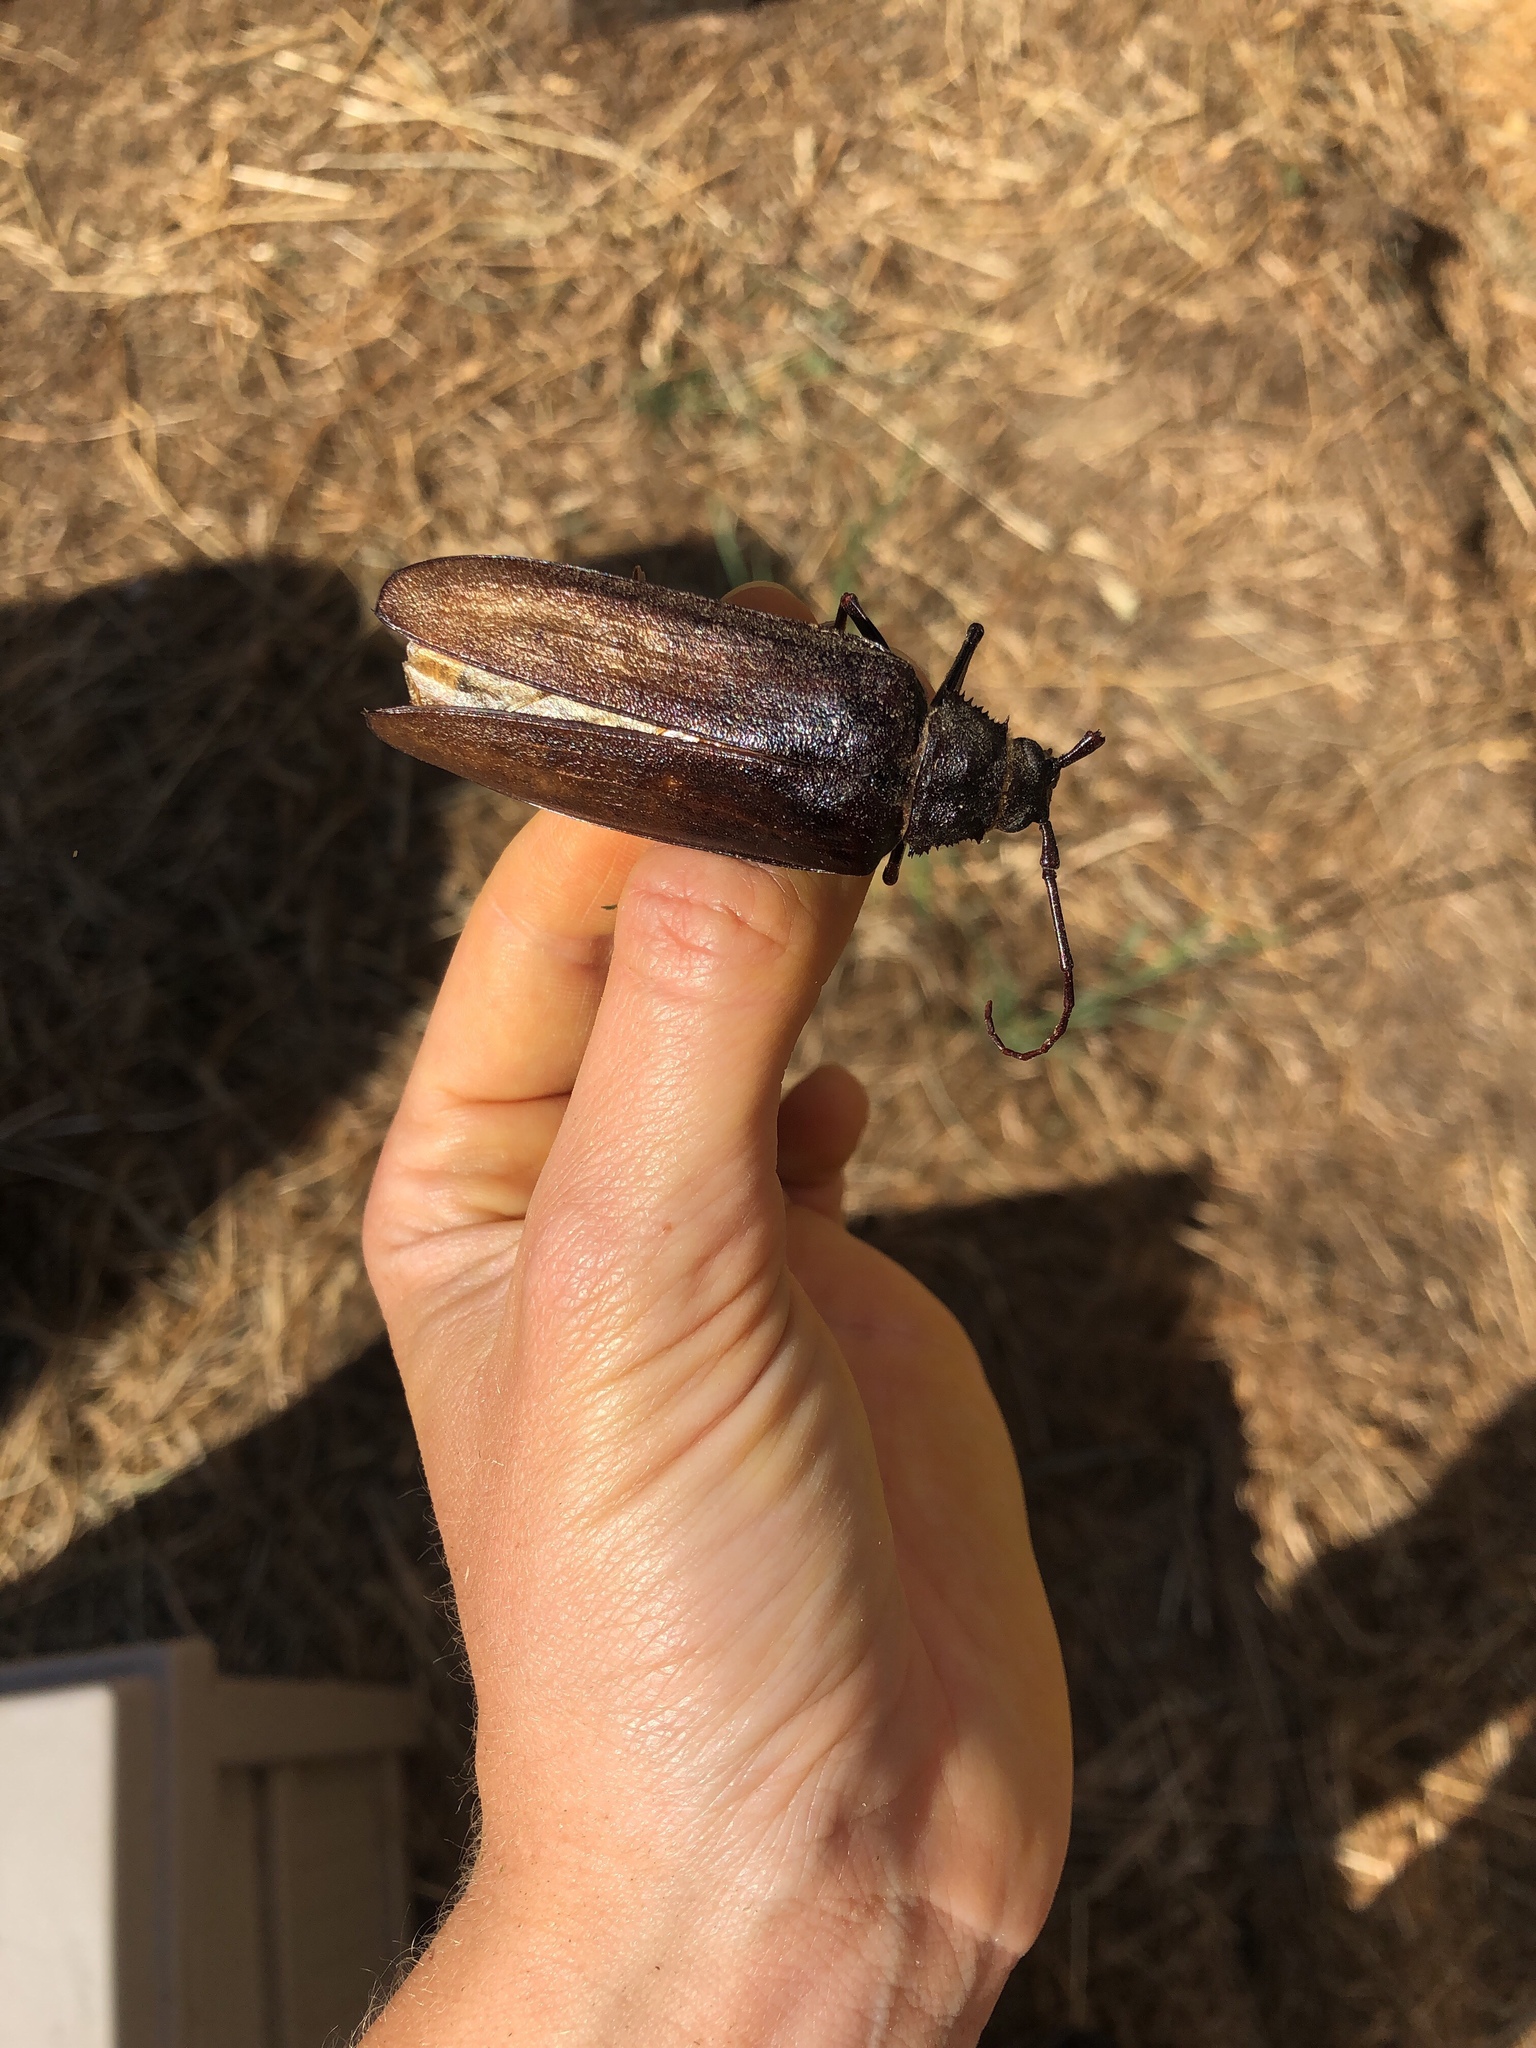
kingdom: Animalia
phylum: Arthropoda
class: Insecta
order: Coleoptera
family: Cerambycidae
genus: Trichocnemis
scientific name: Trichocnemis spiculatus
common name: Long-horned beetle
